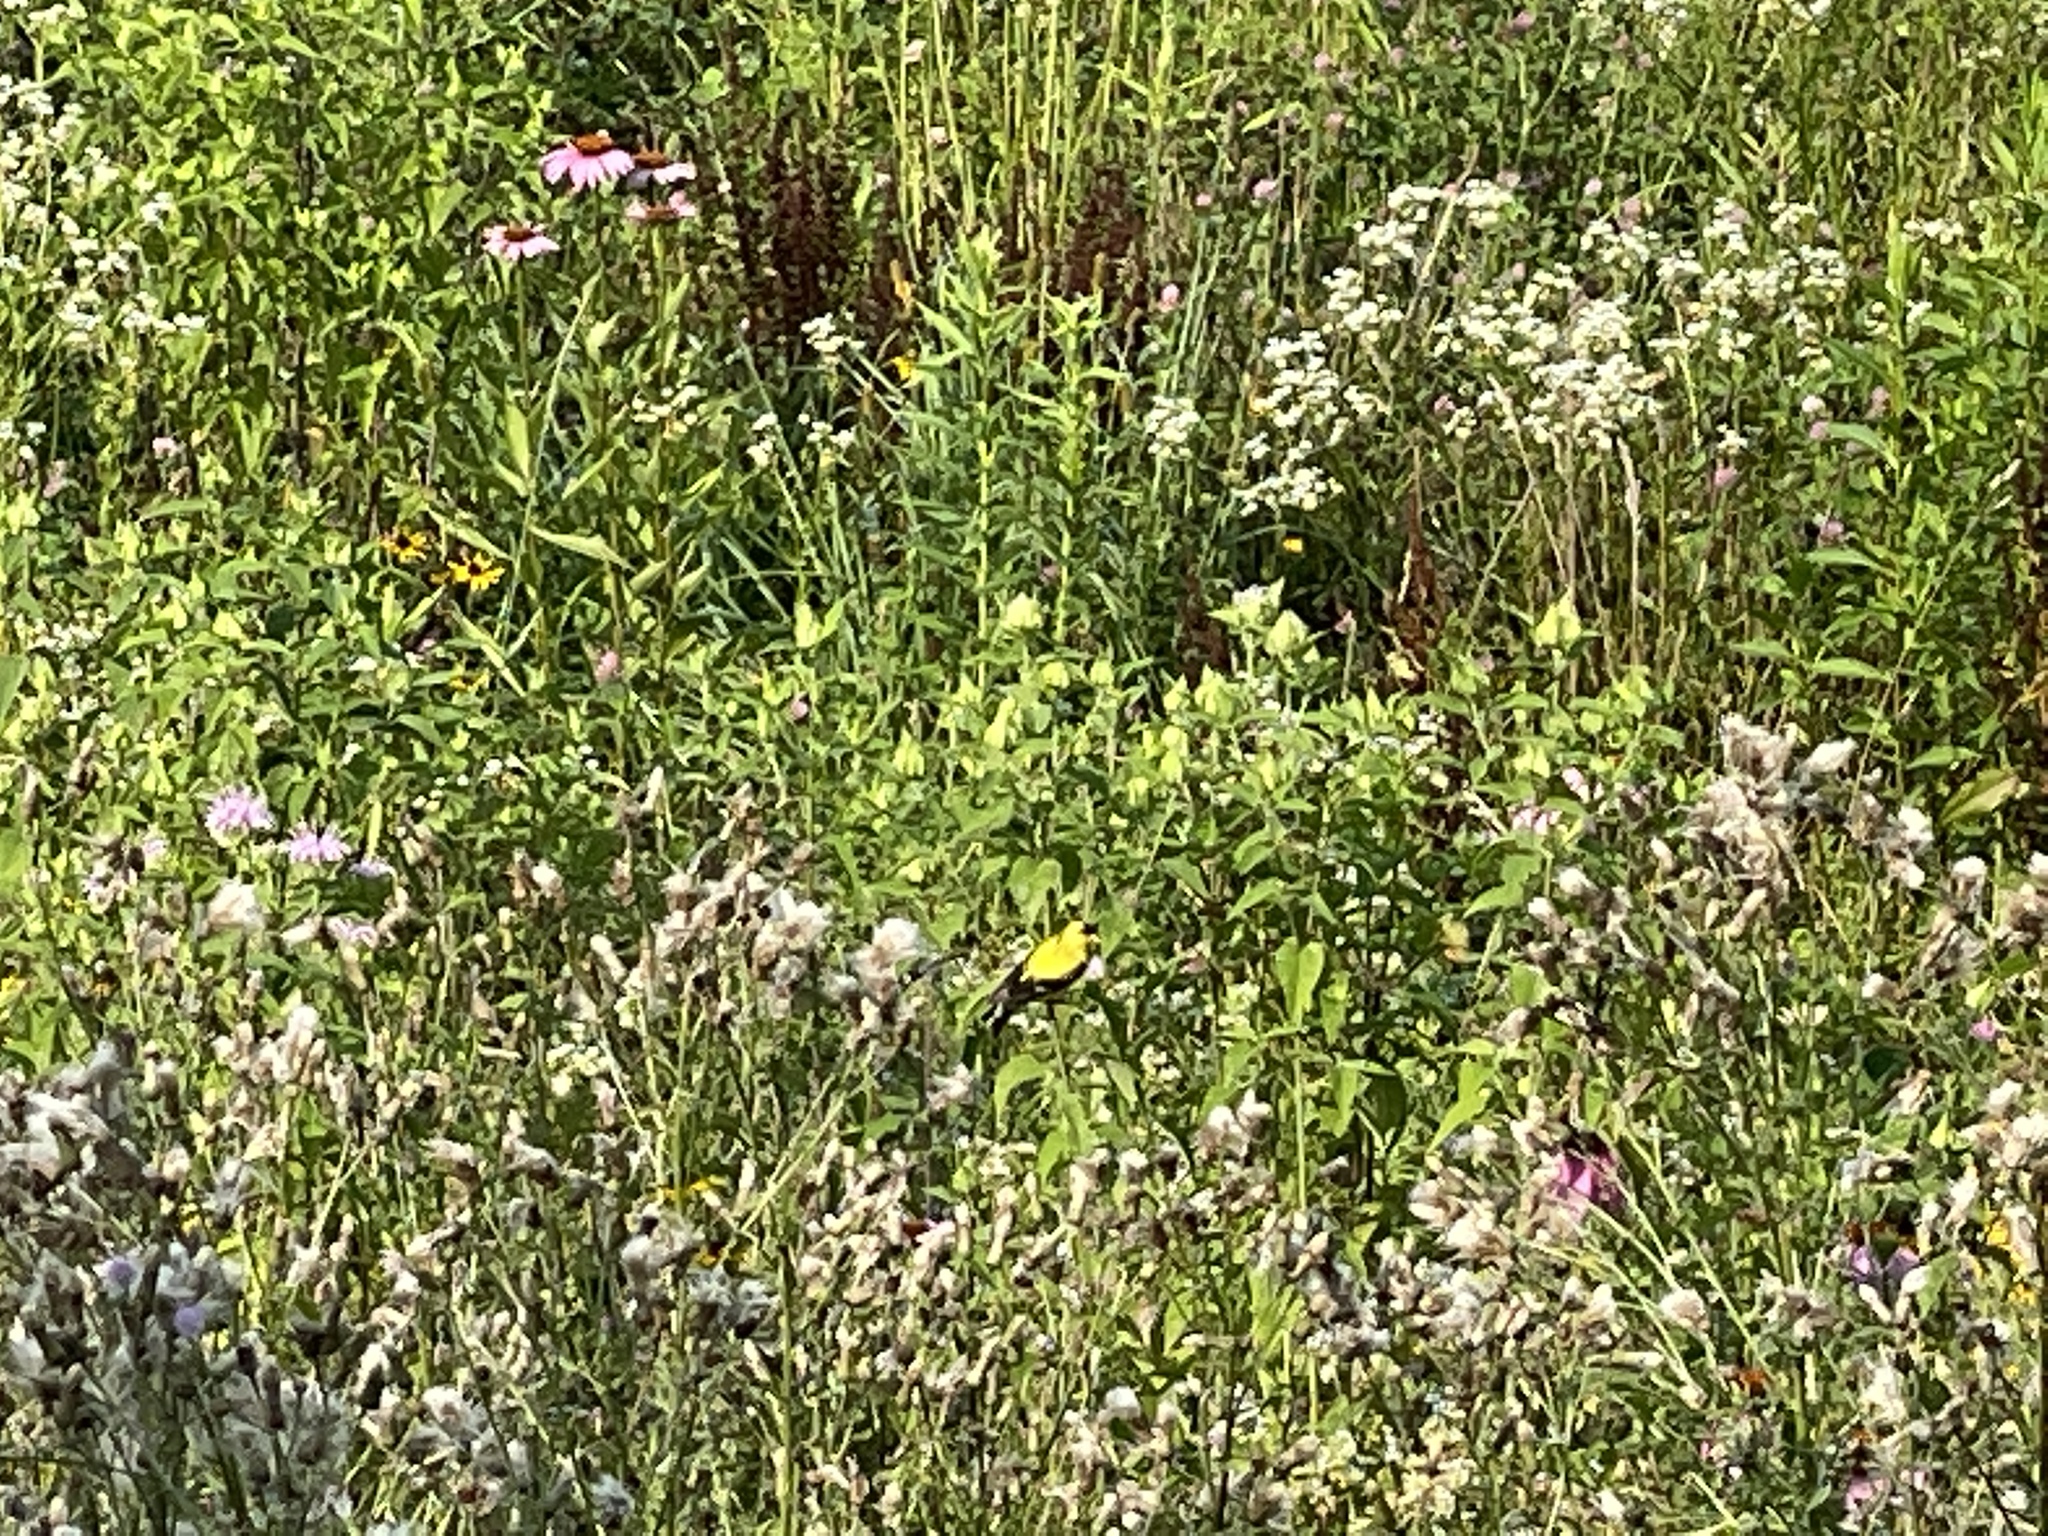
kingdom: Animalia
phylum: Chordata
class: Aves
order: Passeriformes
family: Fringillidae
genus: Spinus
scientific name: Spinus tristis
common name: American goldfinch
